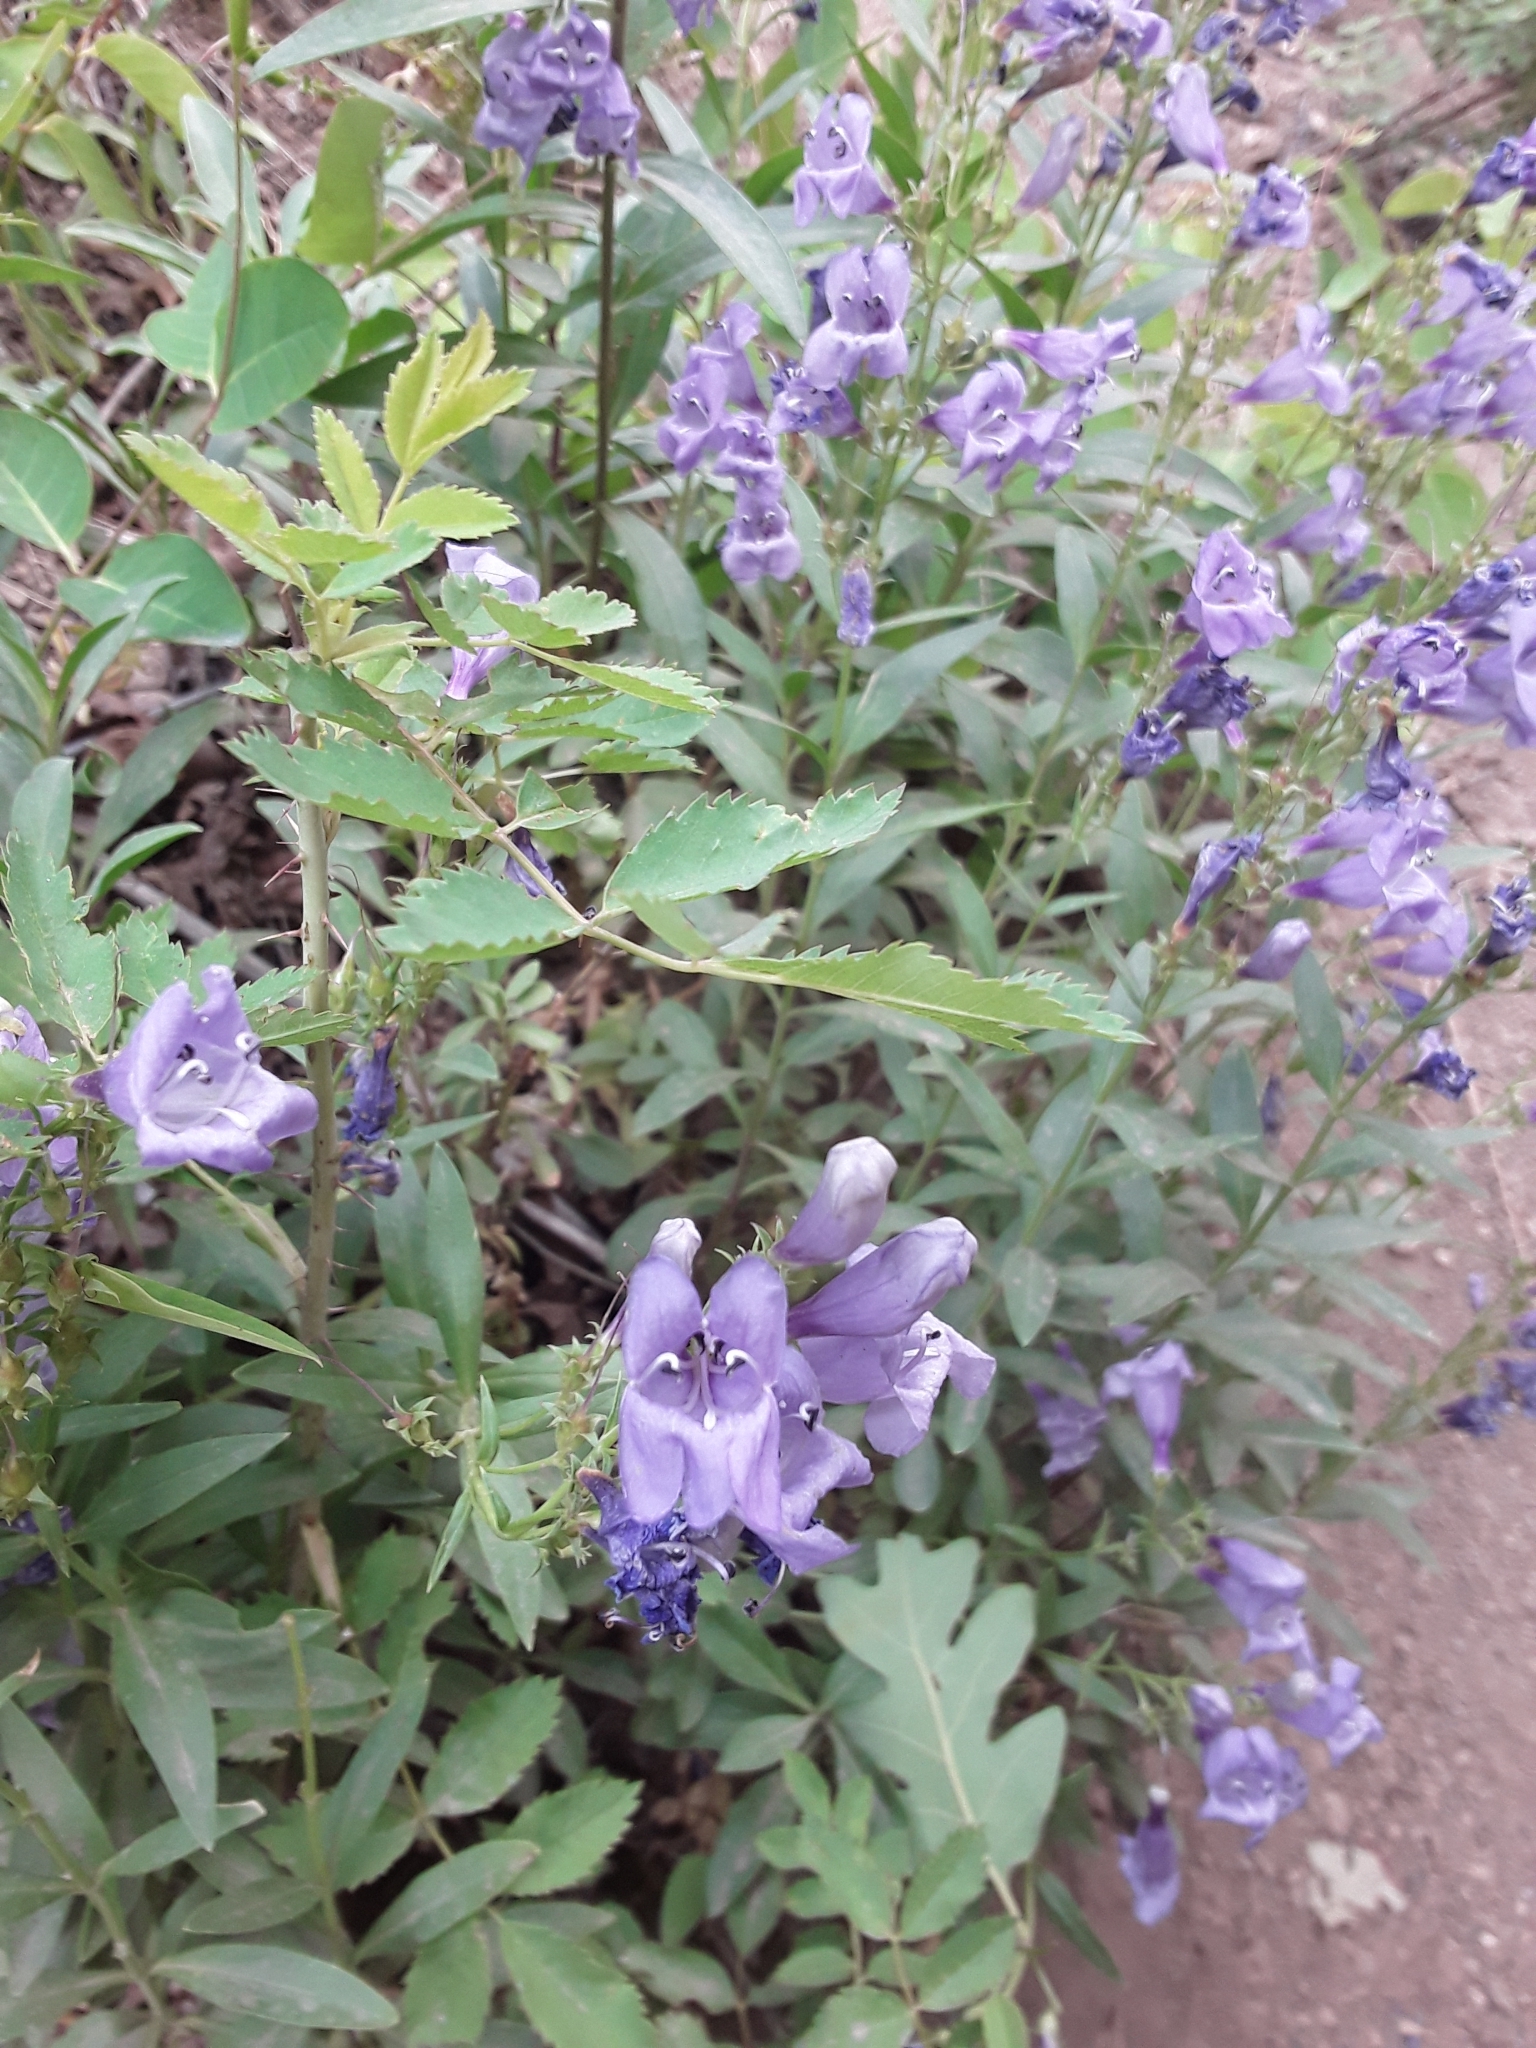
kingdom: Plantae
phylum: Tracheophyta
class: Magnoliopsida
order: Lamiales
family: Plantaginaceae
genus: Penstemon
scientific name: Penstemon platyphyllus
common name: Broadleaf penstemon
